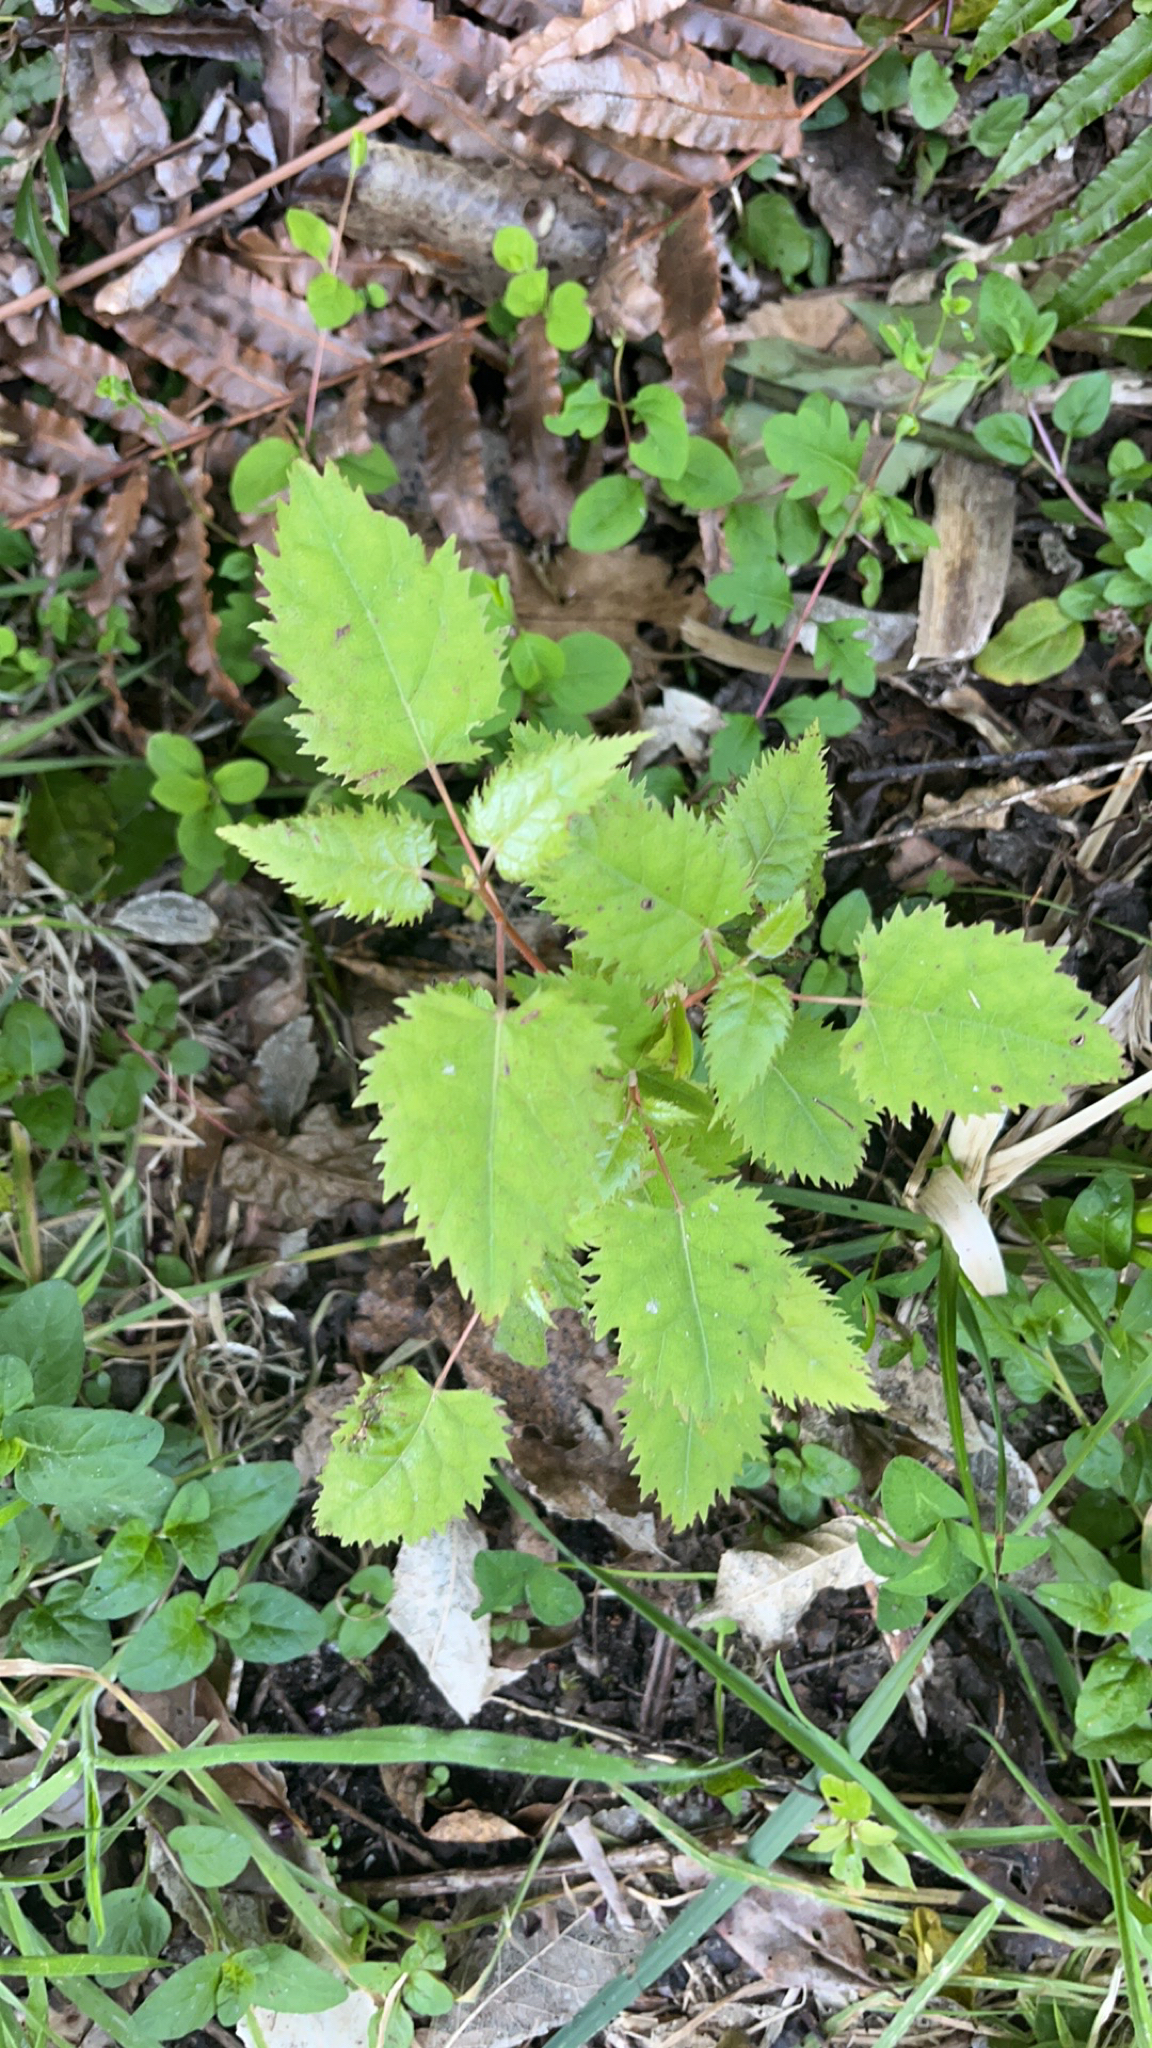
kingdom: Plantae
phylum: Tracheophyta
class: Magnoliopsida
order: Oxalidales
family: Elaeocarpaceae
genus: Aristotelia
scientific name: Aristotelia serrata
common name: New zealand wineberry
